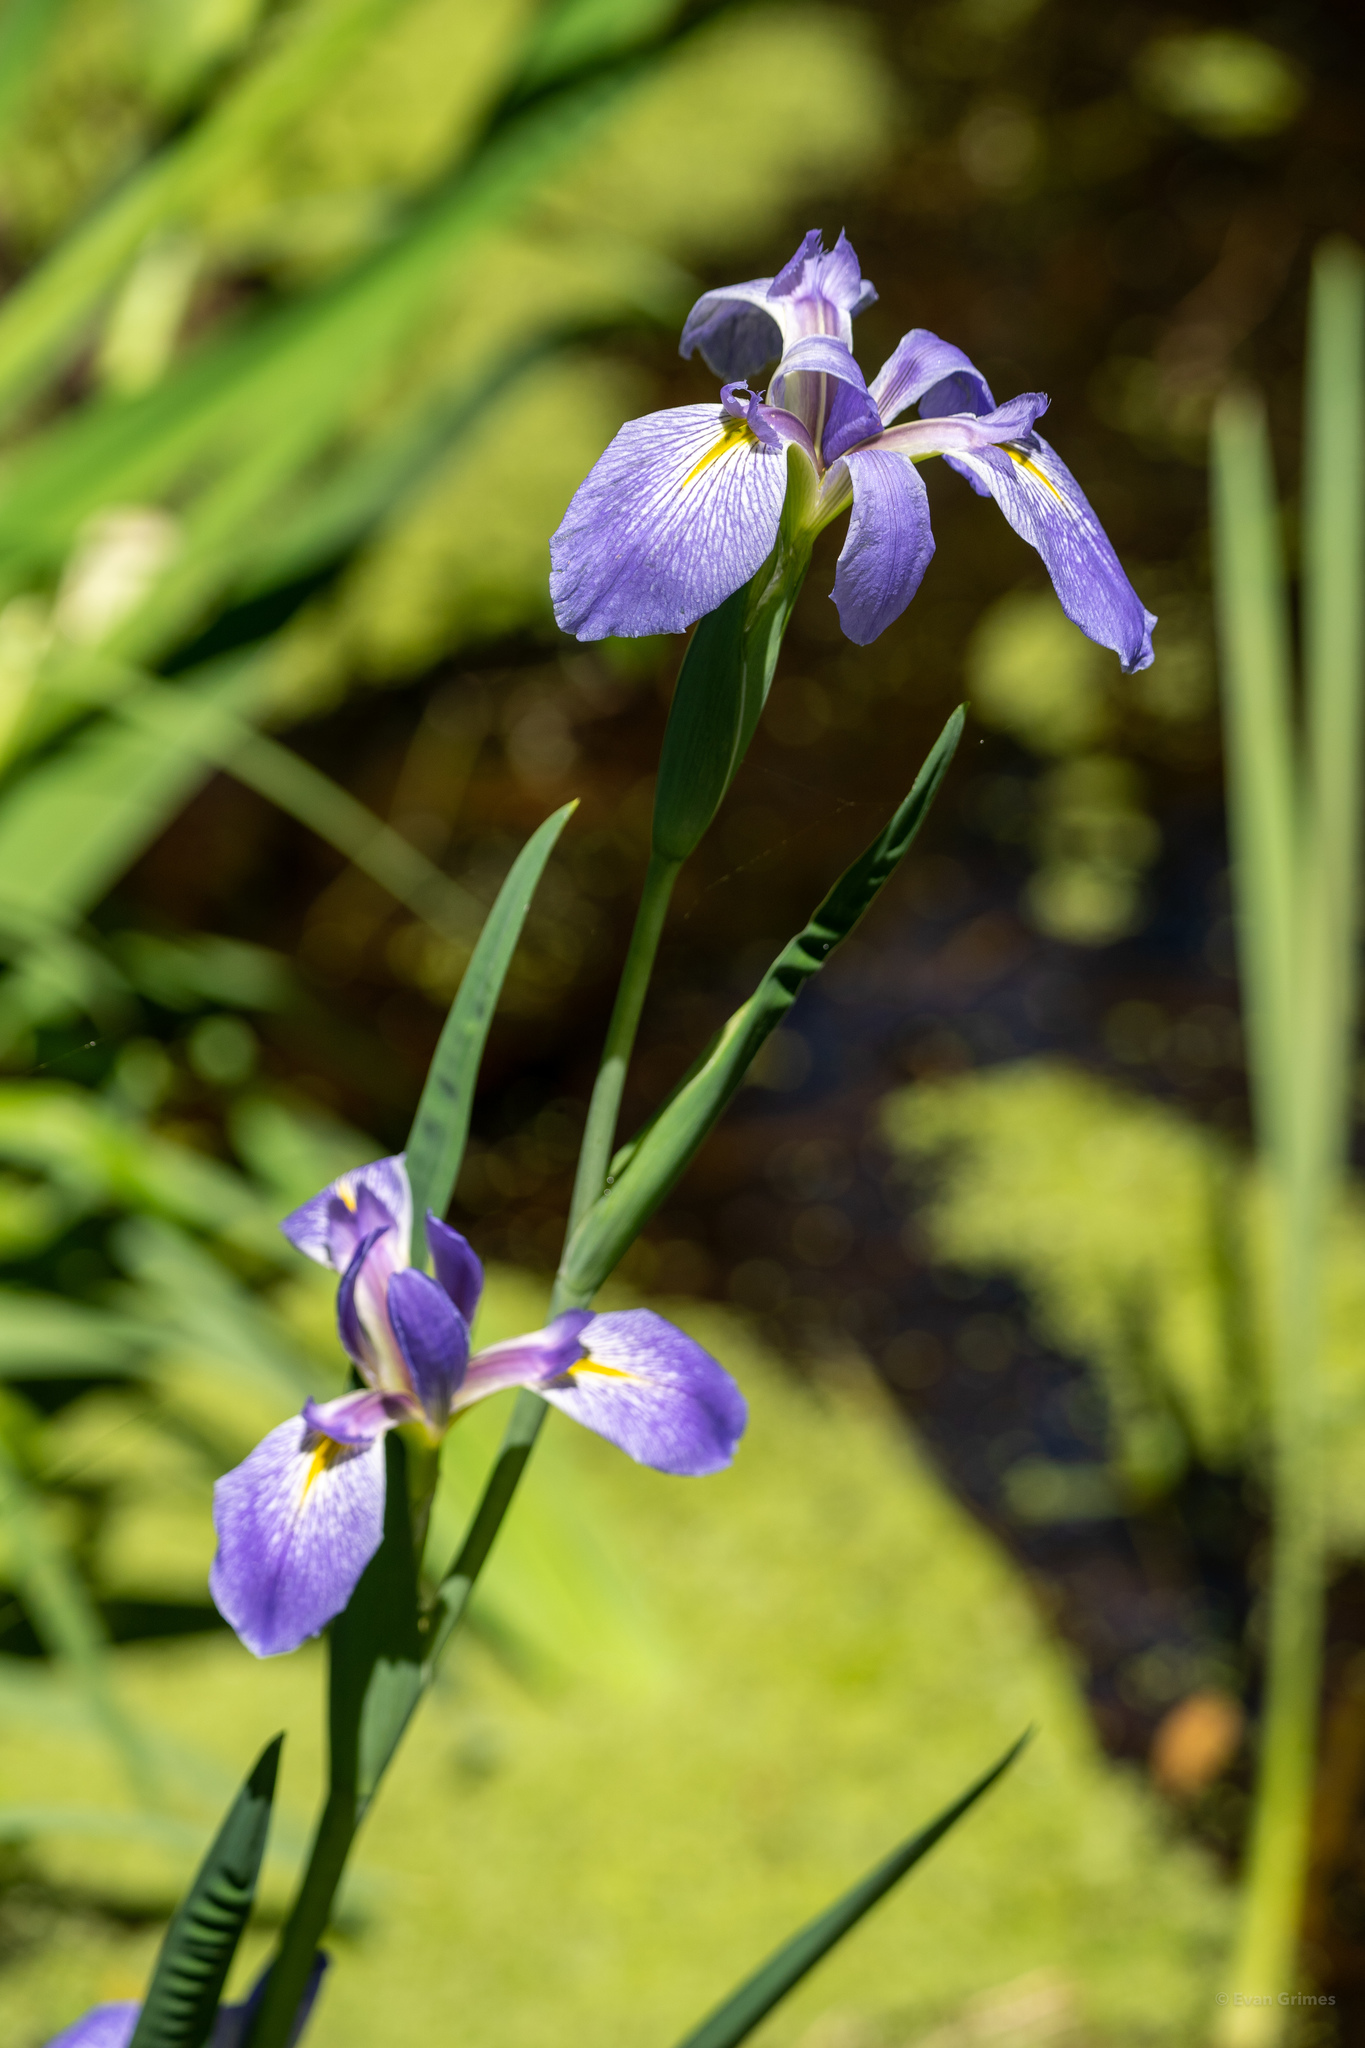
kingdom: Plantae
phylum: Tracheophyta
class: Liliopsida
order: Asparagales
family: Iridaceae
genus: Iris
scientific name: Iris giganticaerulea
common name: Giant blue iris
